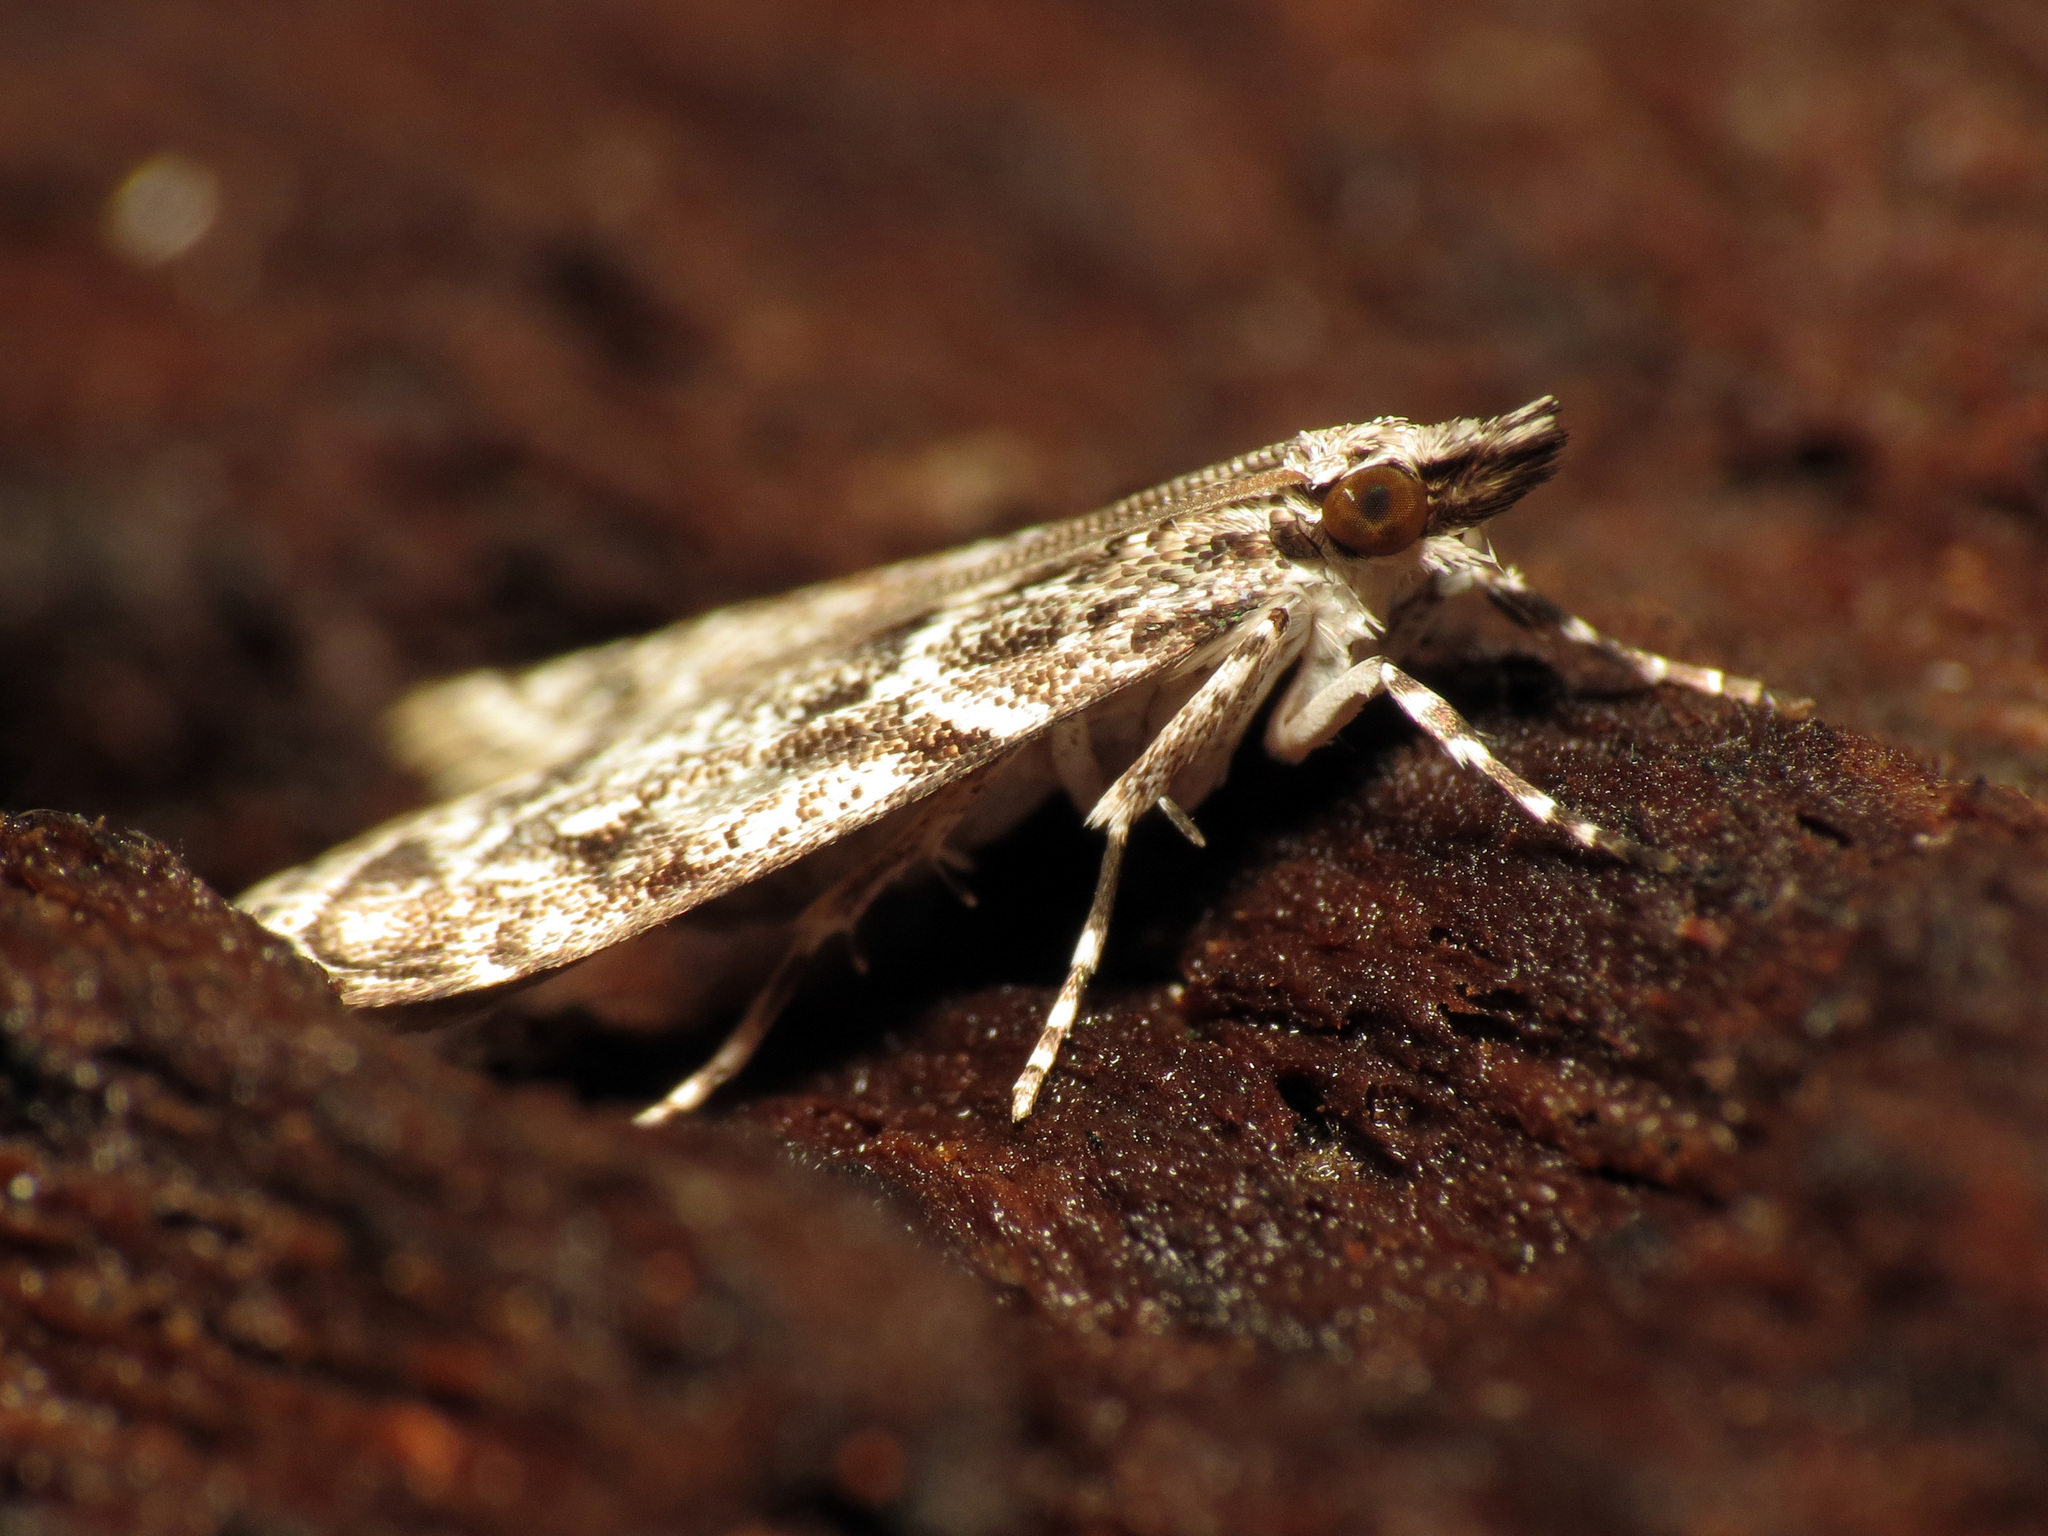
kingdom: Animalia
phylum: Arthropoda
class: Insecta
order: Lepidoptera
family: Crambidae
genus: Eudonia
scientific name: Eudonia heterosalis
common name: Mcdunnough's eudonia
